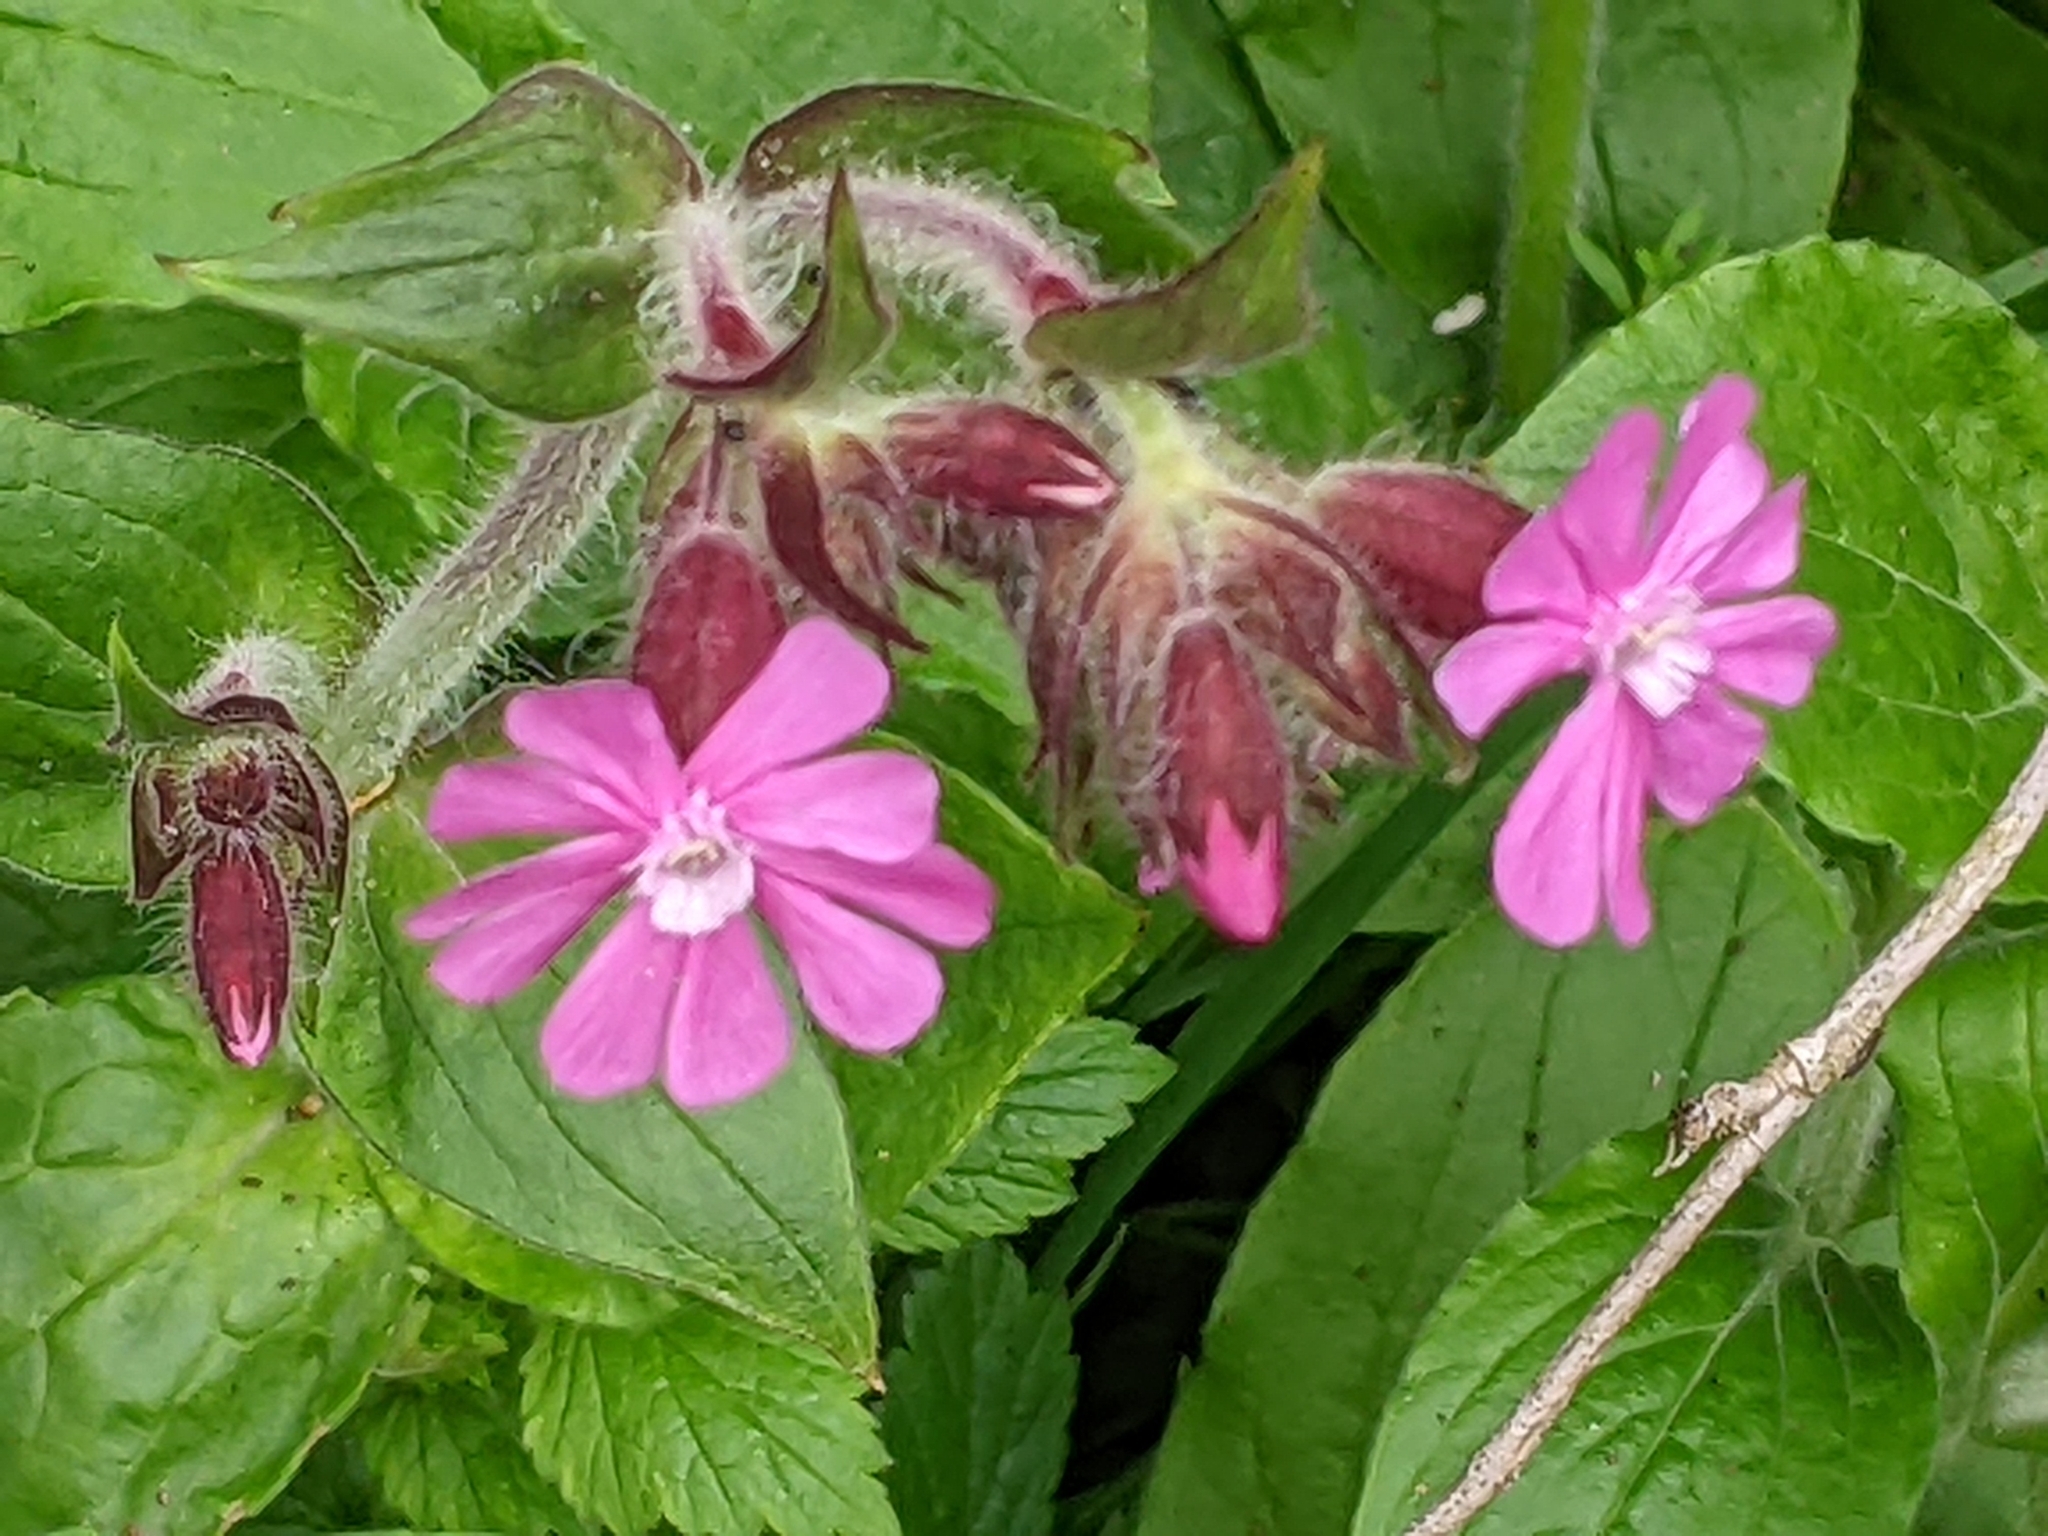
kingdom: Plantae
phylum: Tracheophyta
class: Magnoliopsida
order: Caryophyllales
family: Caryophyllaceae
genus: Silene
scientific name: Silene dioica
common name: Red campion
